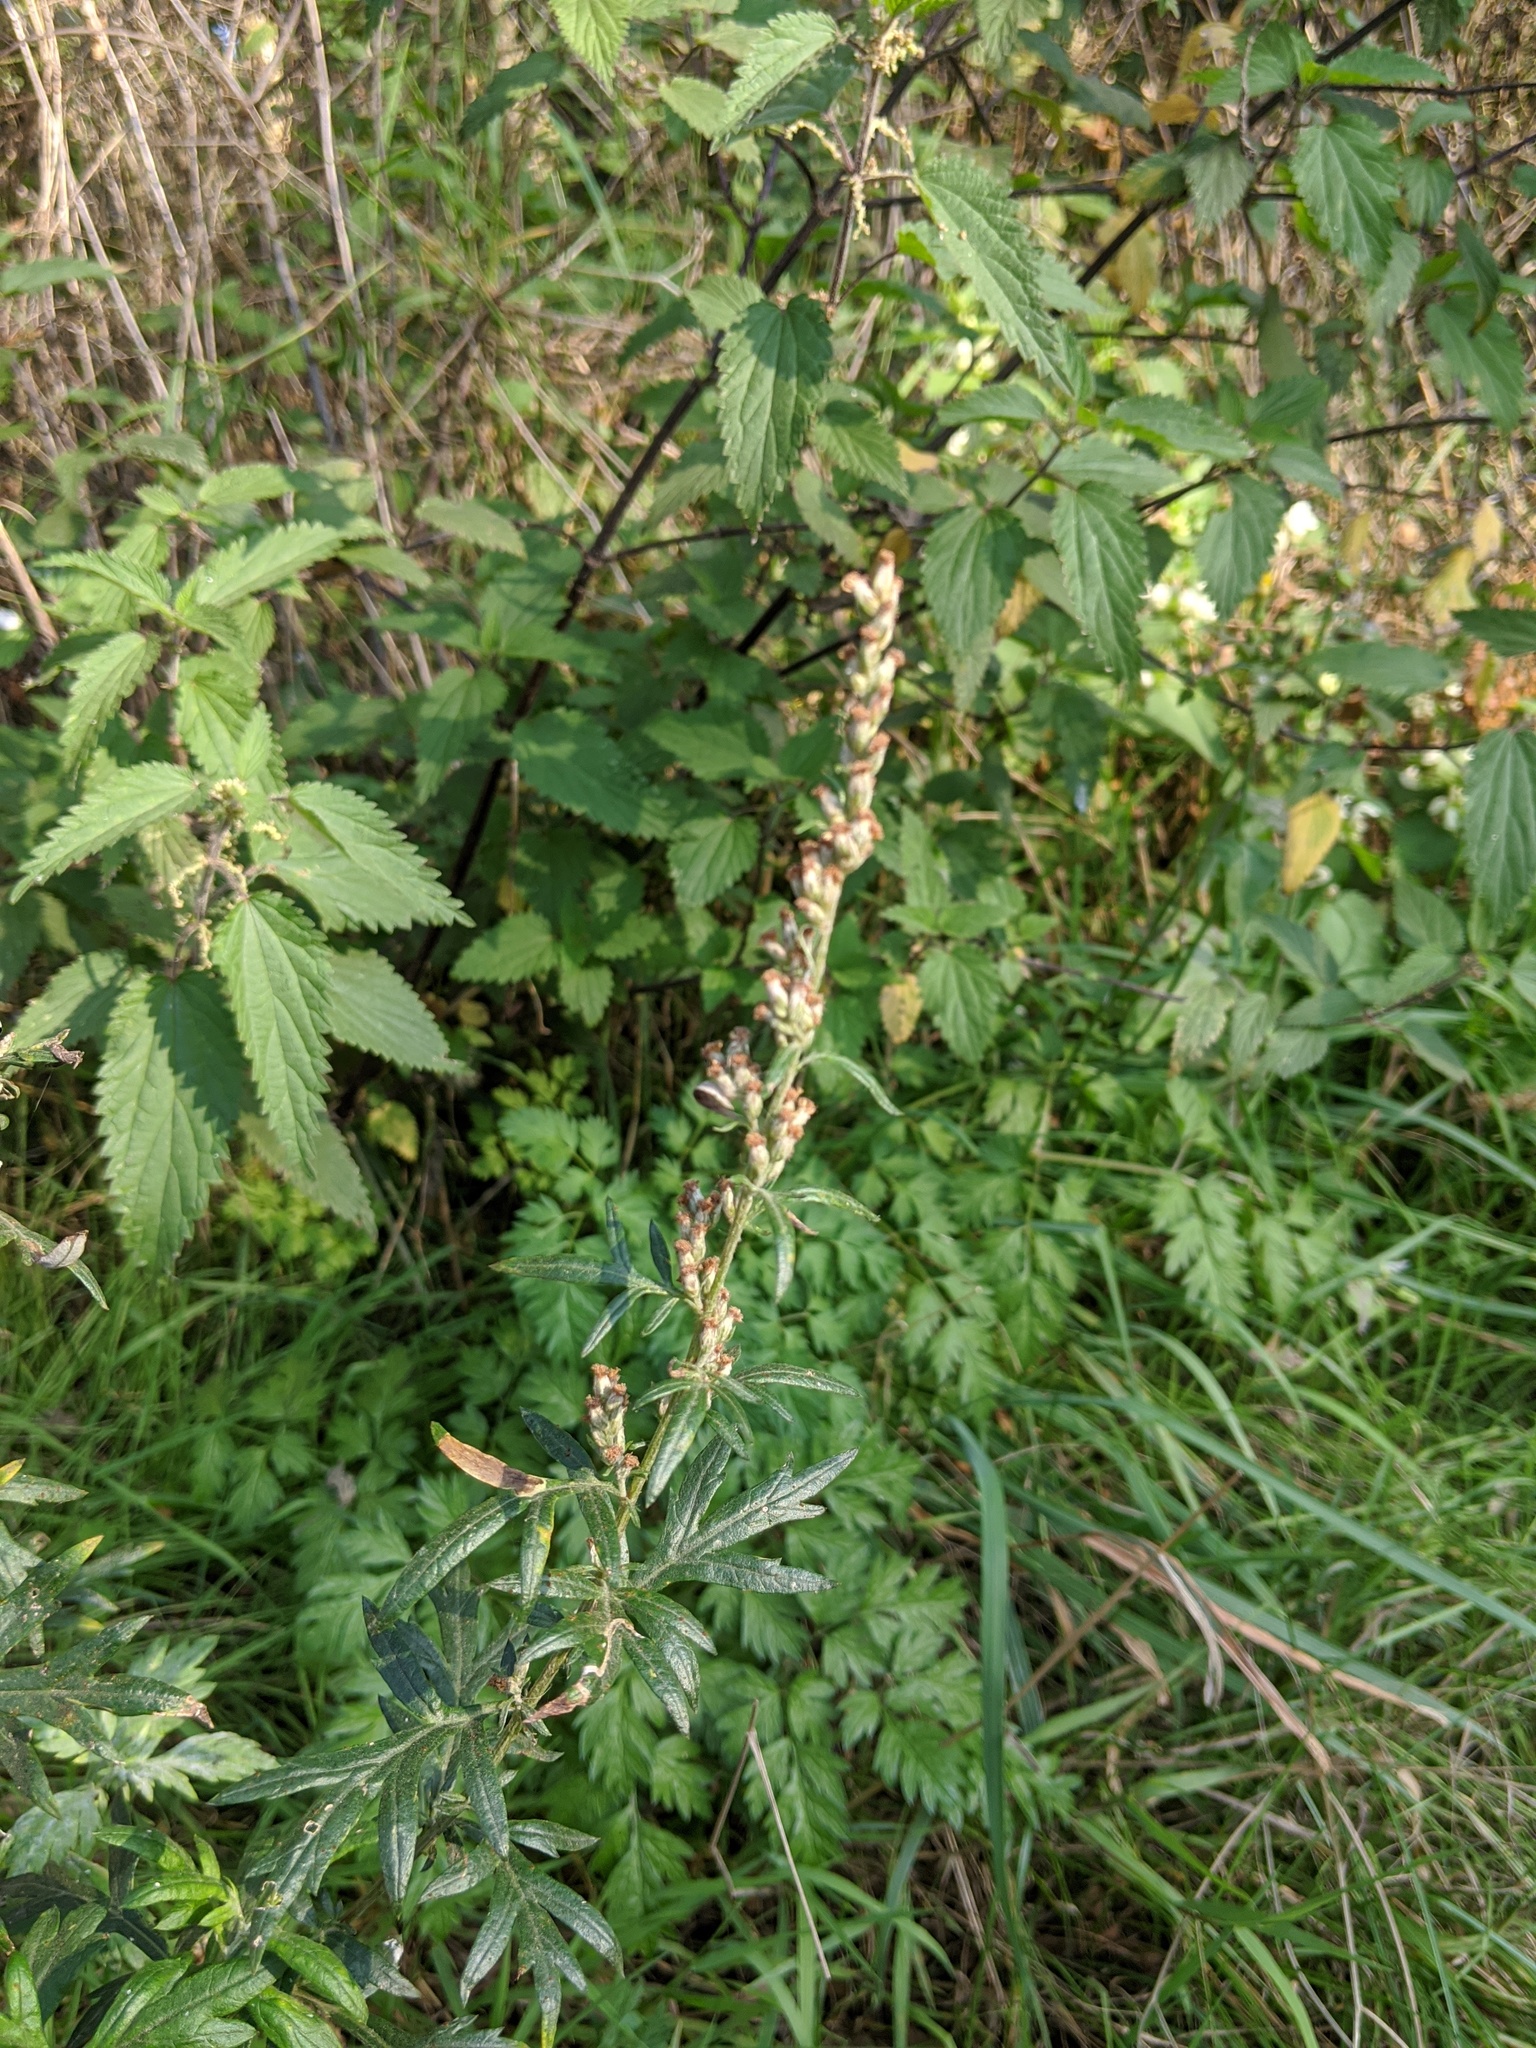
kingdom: Plantae
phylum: Tracheophyta
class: Magnoliopsida
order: Asterales
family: Asteraceae
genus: Artemisia
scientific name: Artemisia vulgaris
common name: Mugwort
